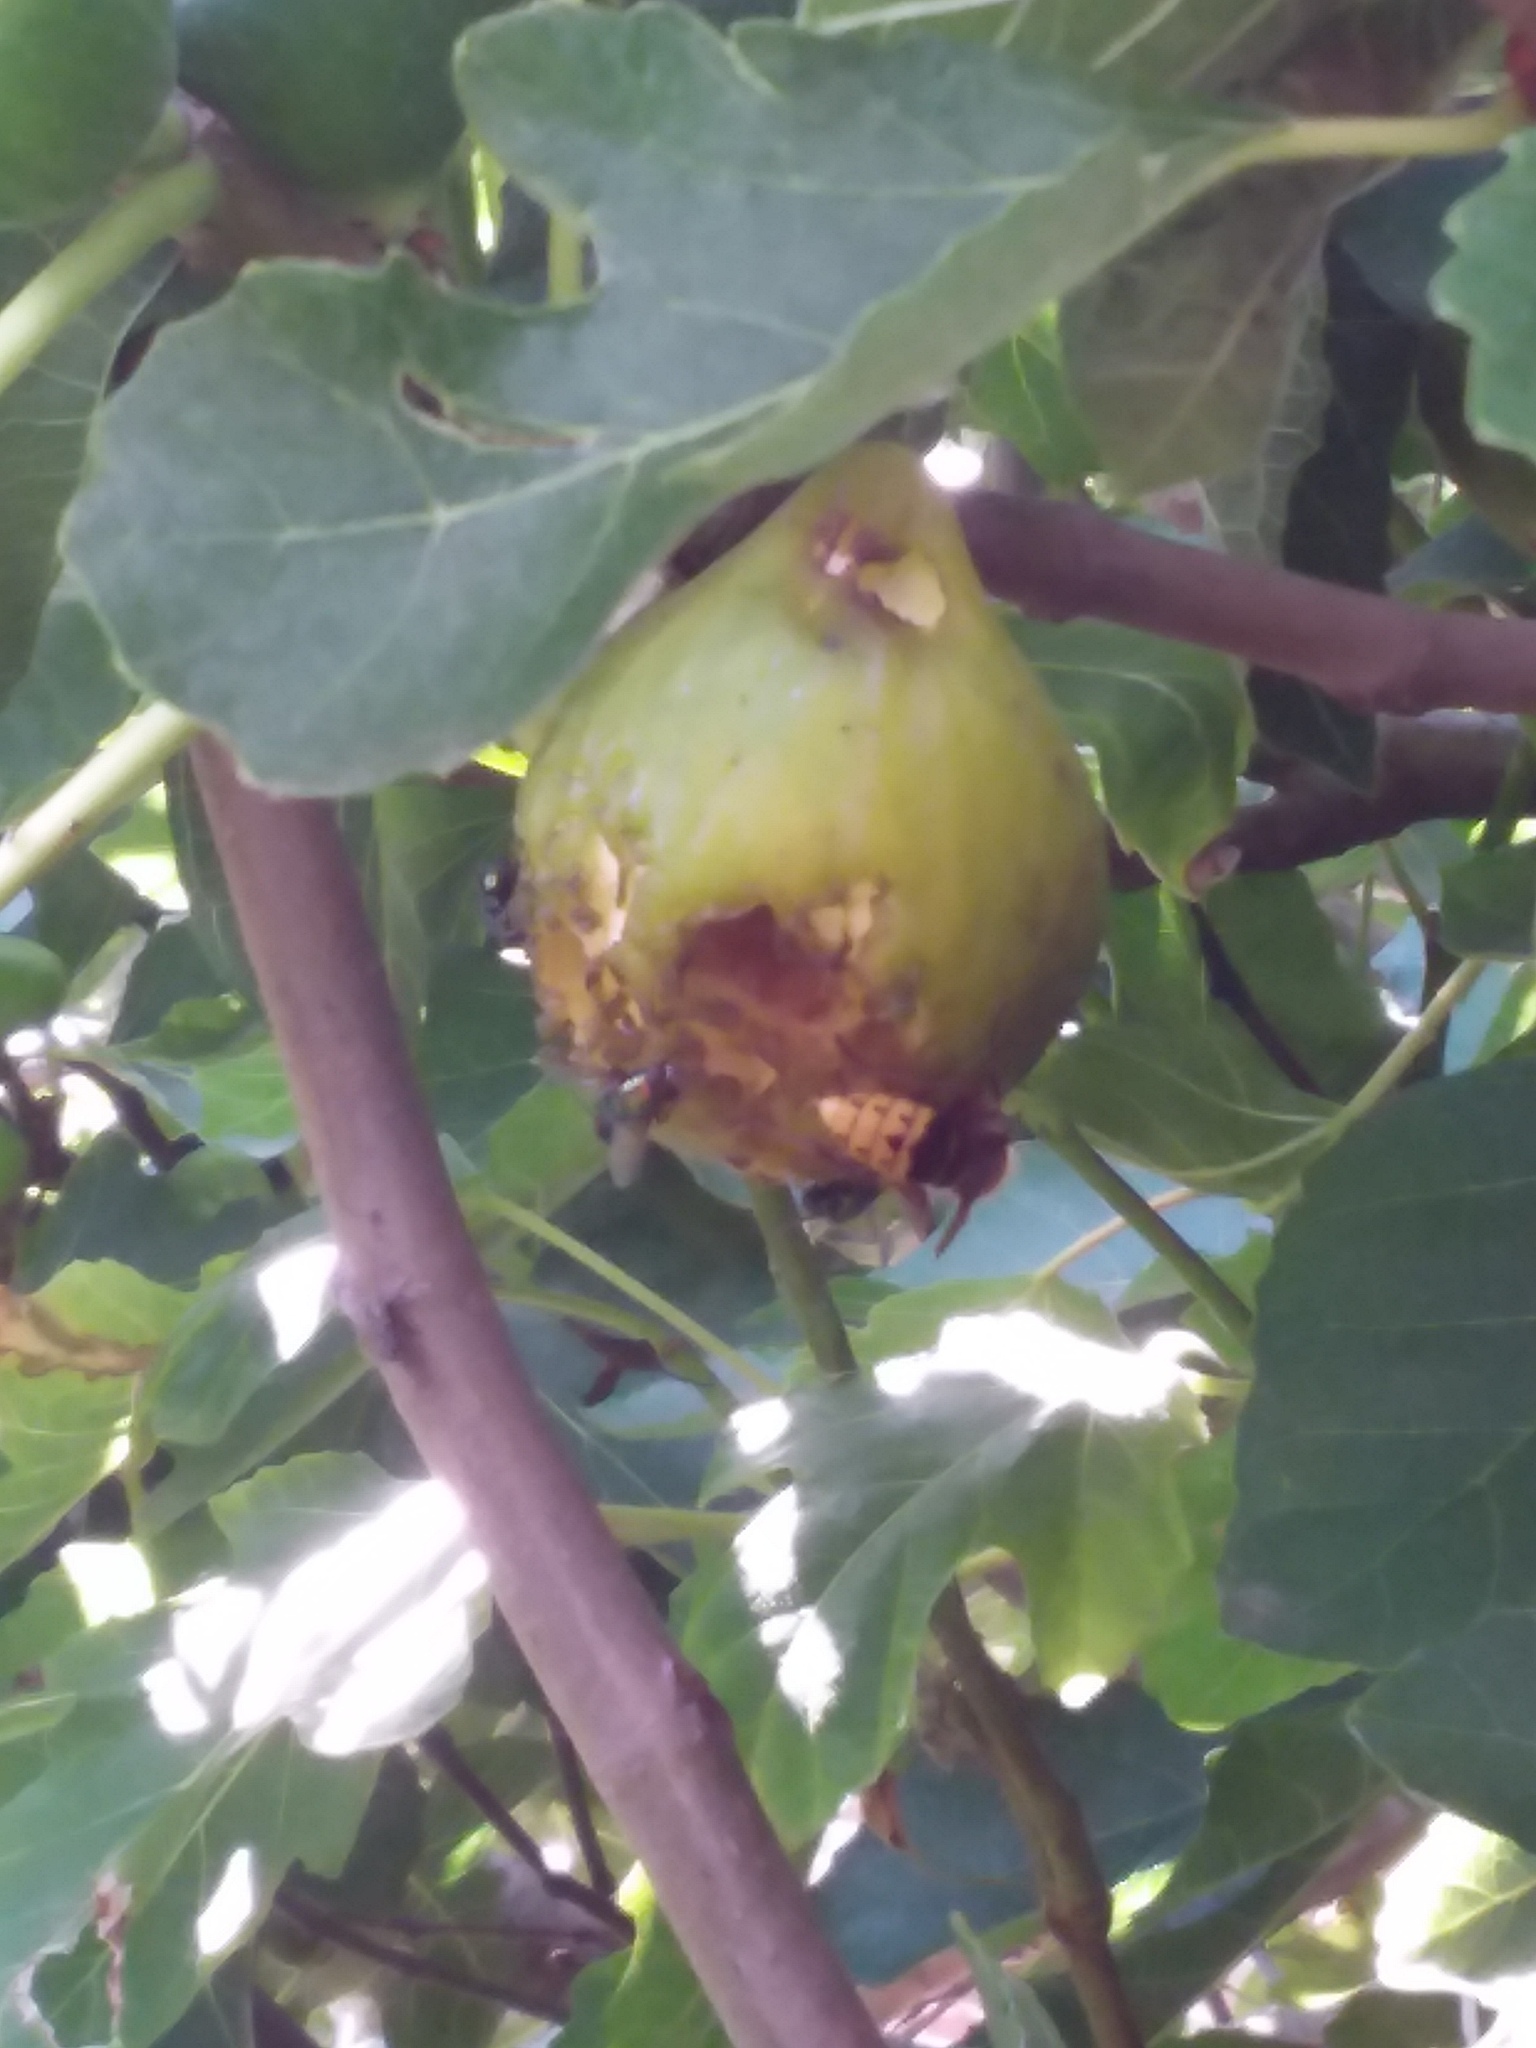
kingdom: Animalia
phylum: Arthropoda
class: Insecta
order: Hymenoptera
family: Vespidae
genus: Vespa
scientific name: Vespa crabro
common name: Hornet
